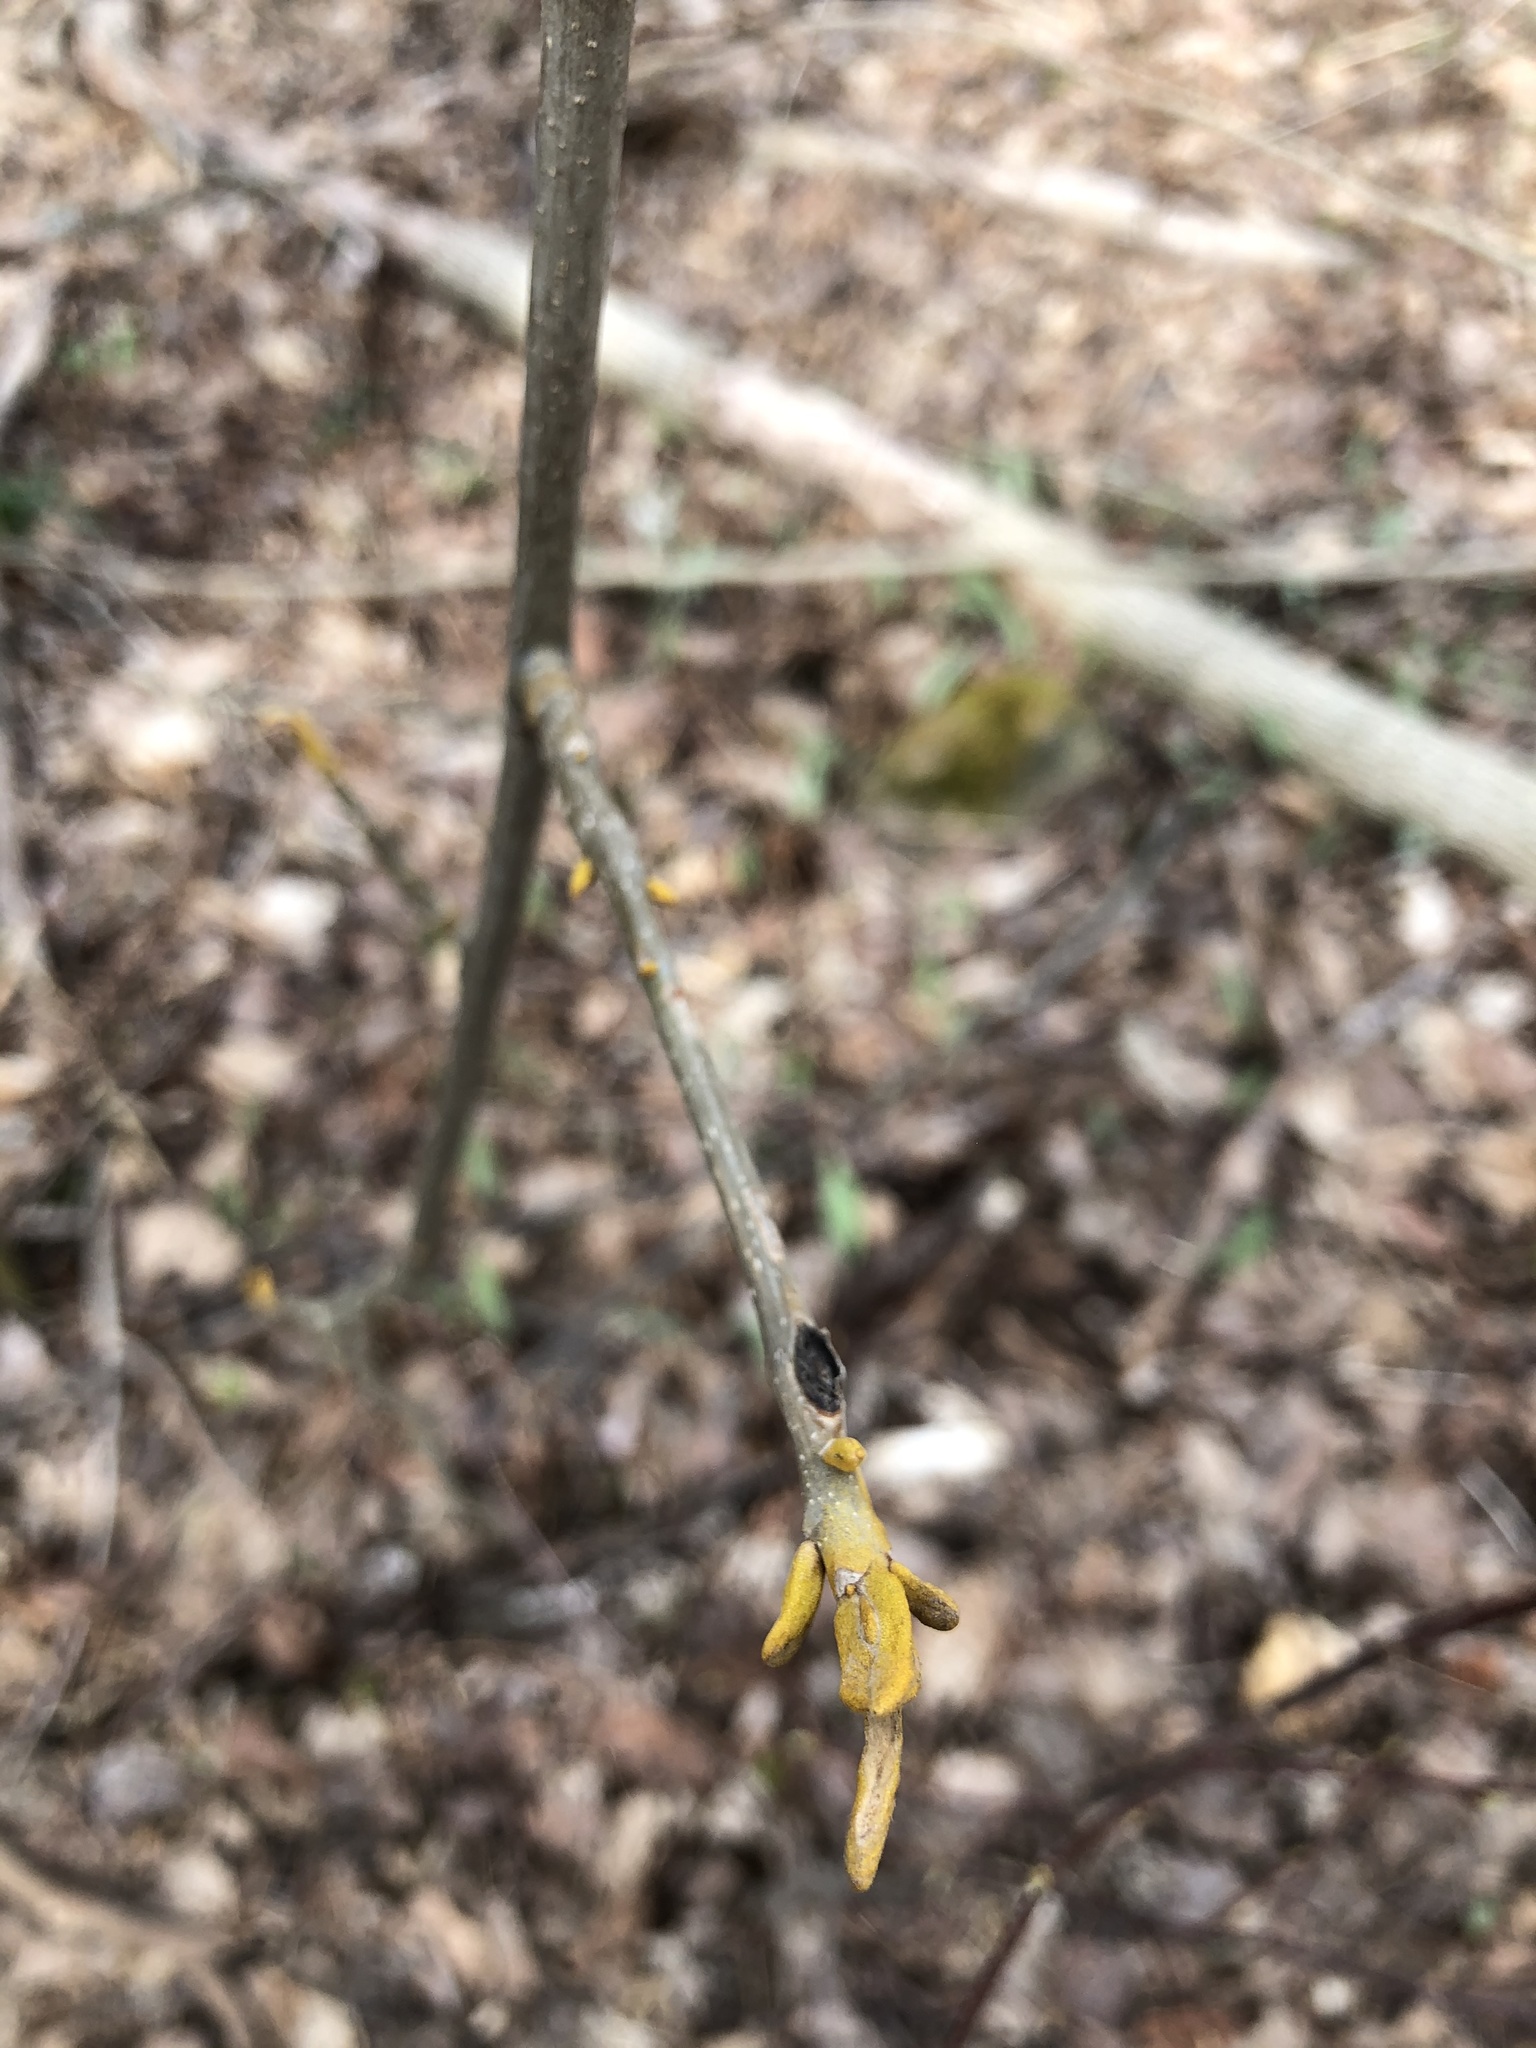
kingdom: Plantae
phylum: Tracheophyta
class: Magnoliopsida
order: Fagales
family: Juglandaceae
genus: Carya
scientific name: Carya cordiformis
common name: Bitternut hickory
